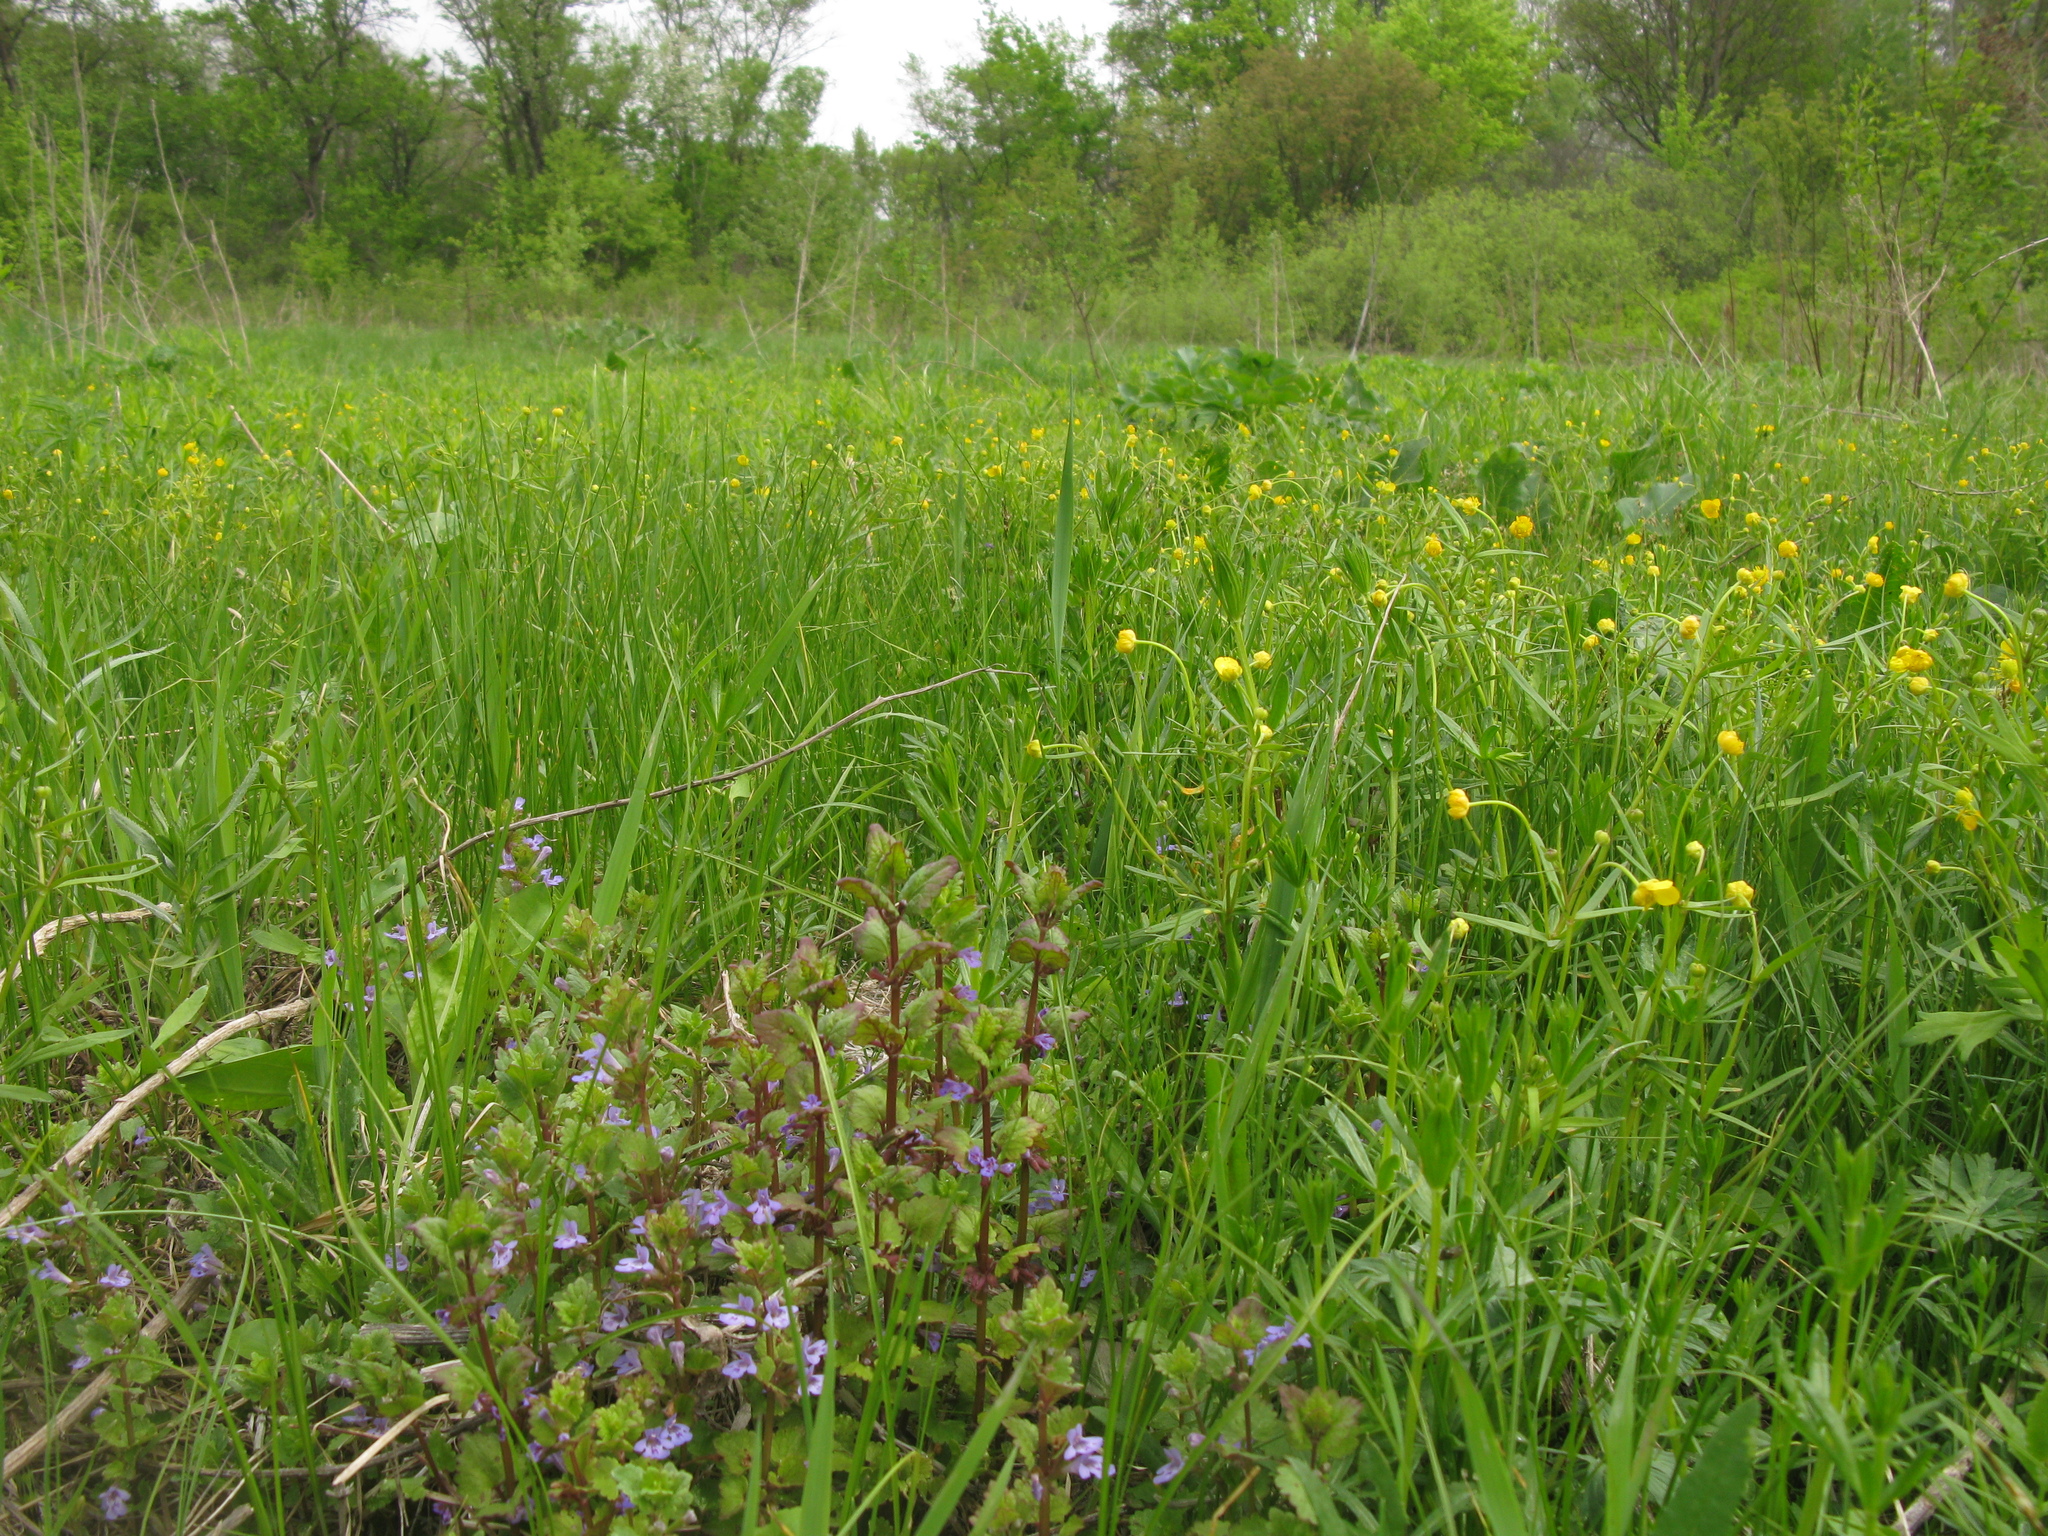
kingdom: Plantae
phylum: Tracheophyta
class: Magnoliopsida
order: Ranunculales
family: Ranunculaceae
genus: Ranunculus
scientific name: Ranunculus auricomus
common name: Goldilocks buttercup
